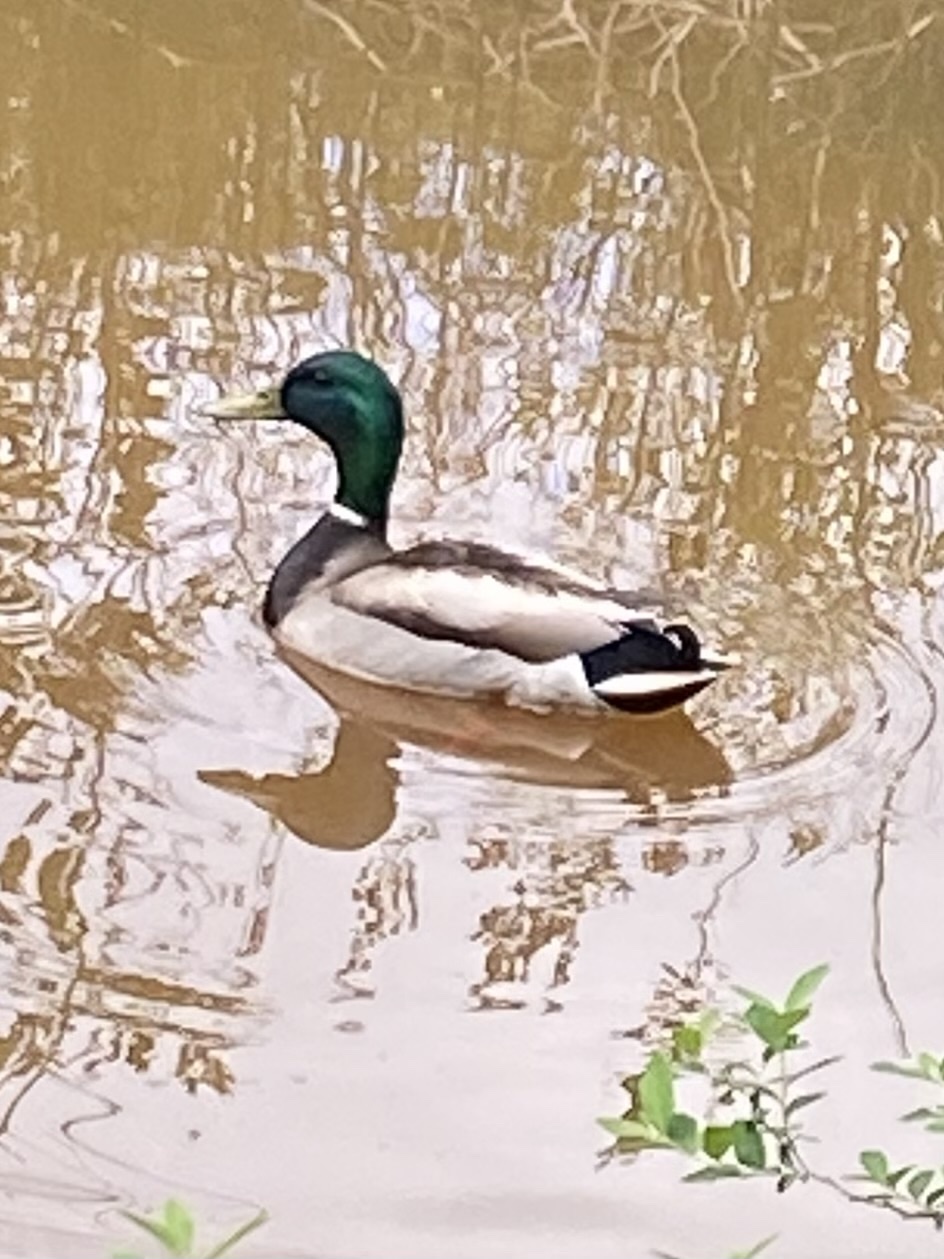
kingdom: Animalia
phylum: Chordata
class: Aves
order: Anseriformes
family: Anatidae
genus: Anas
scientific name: Anas platyrhynchos
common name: Mallard
